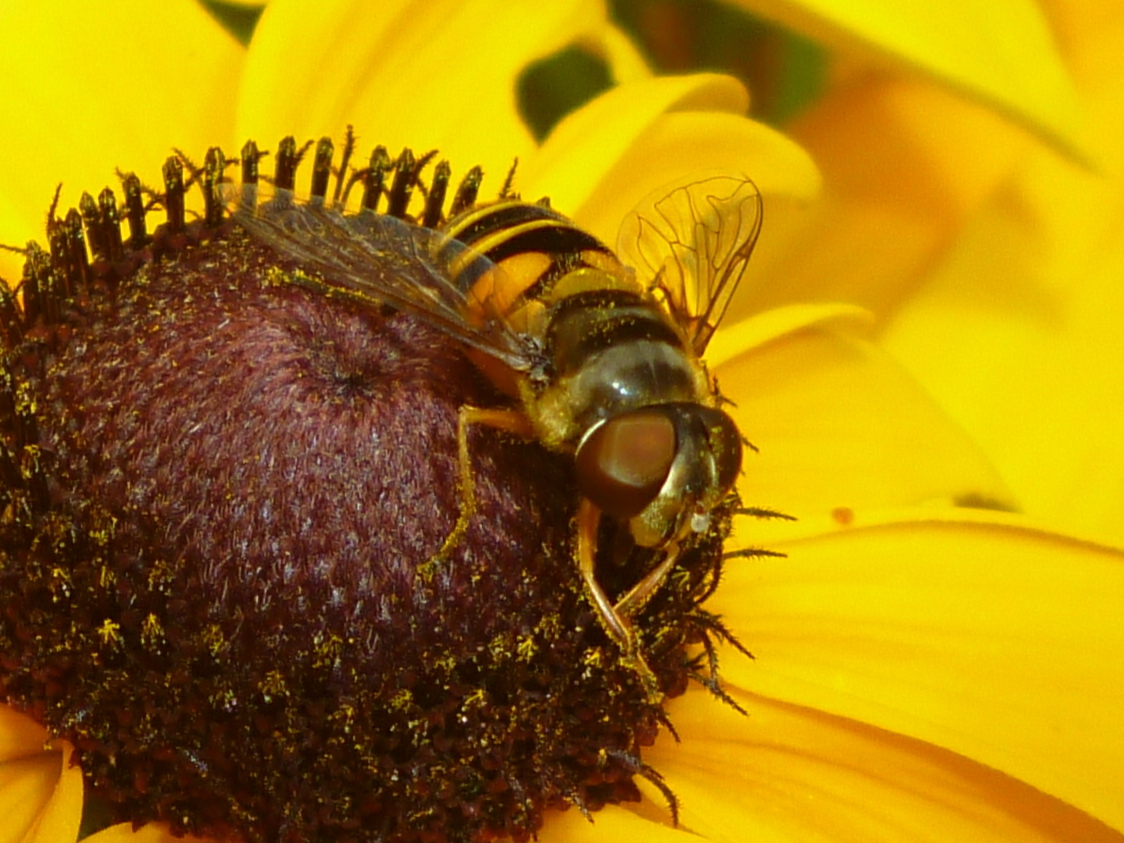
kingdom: Animalia
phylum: Arthropoda
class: Insecta
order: Diptera
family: Syrphidae
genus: Eristalis
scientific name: Eristalis transversa
